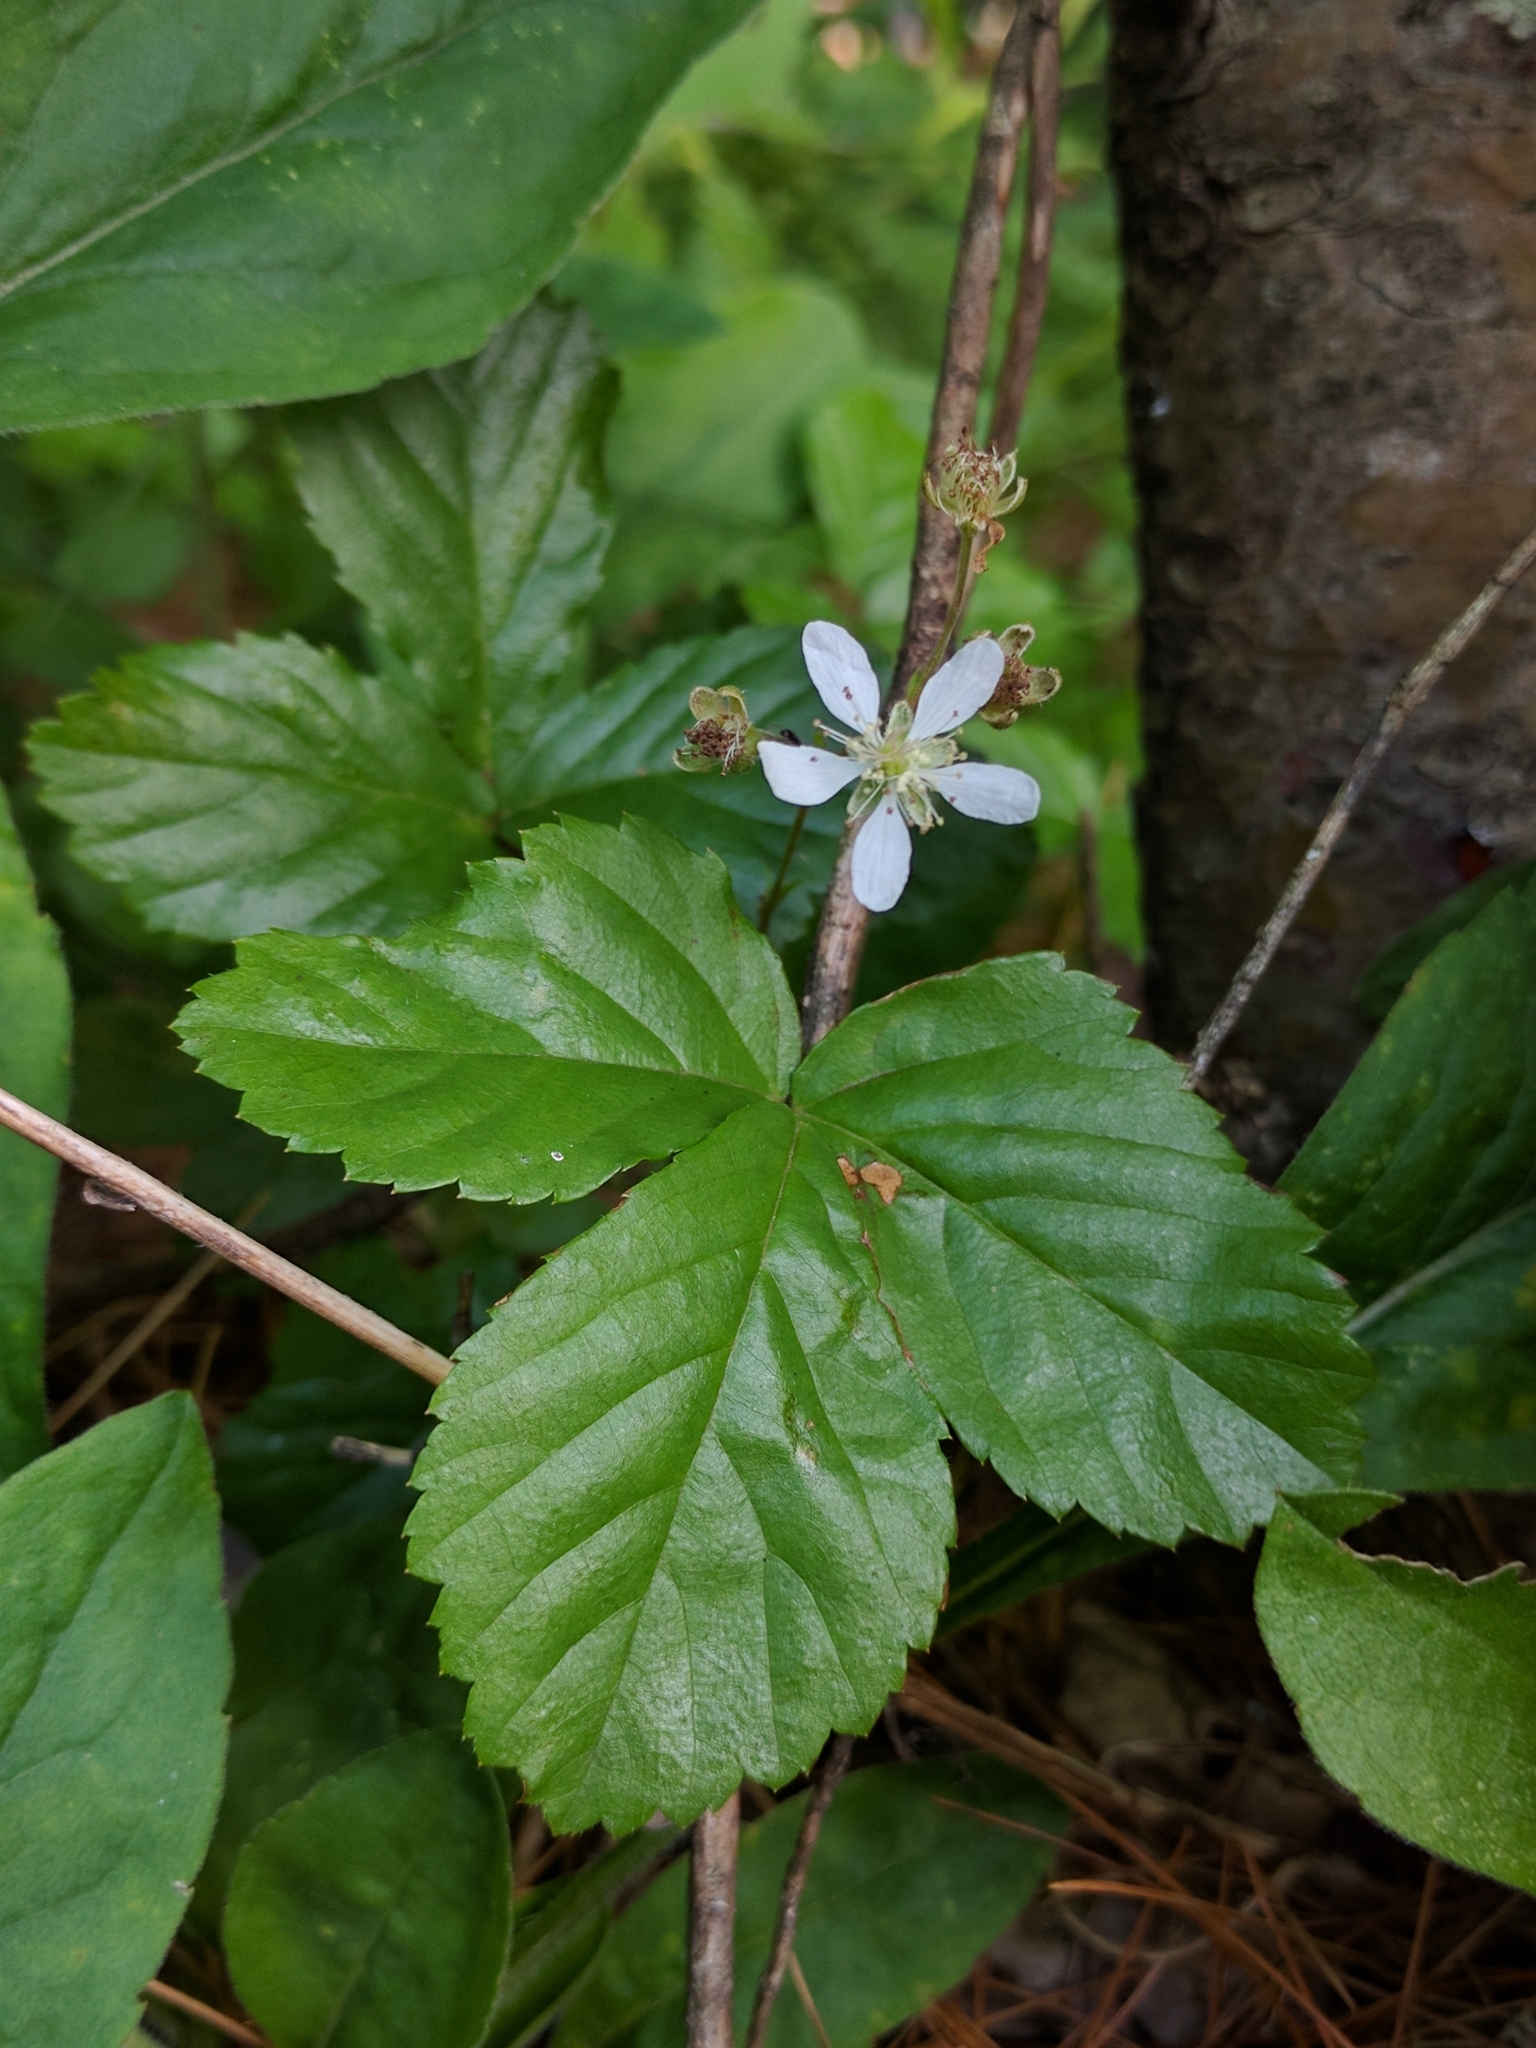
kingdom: Plantae
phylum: Tracheophyta
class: Magnoliopsida
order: Rosales
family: Rosaceae
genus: Rubus
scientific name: Rubus hispidus
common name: Running blackberry
